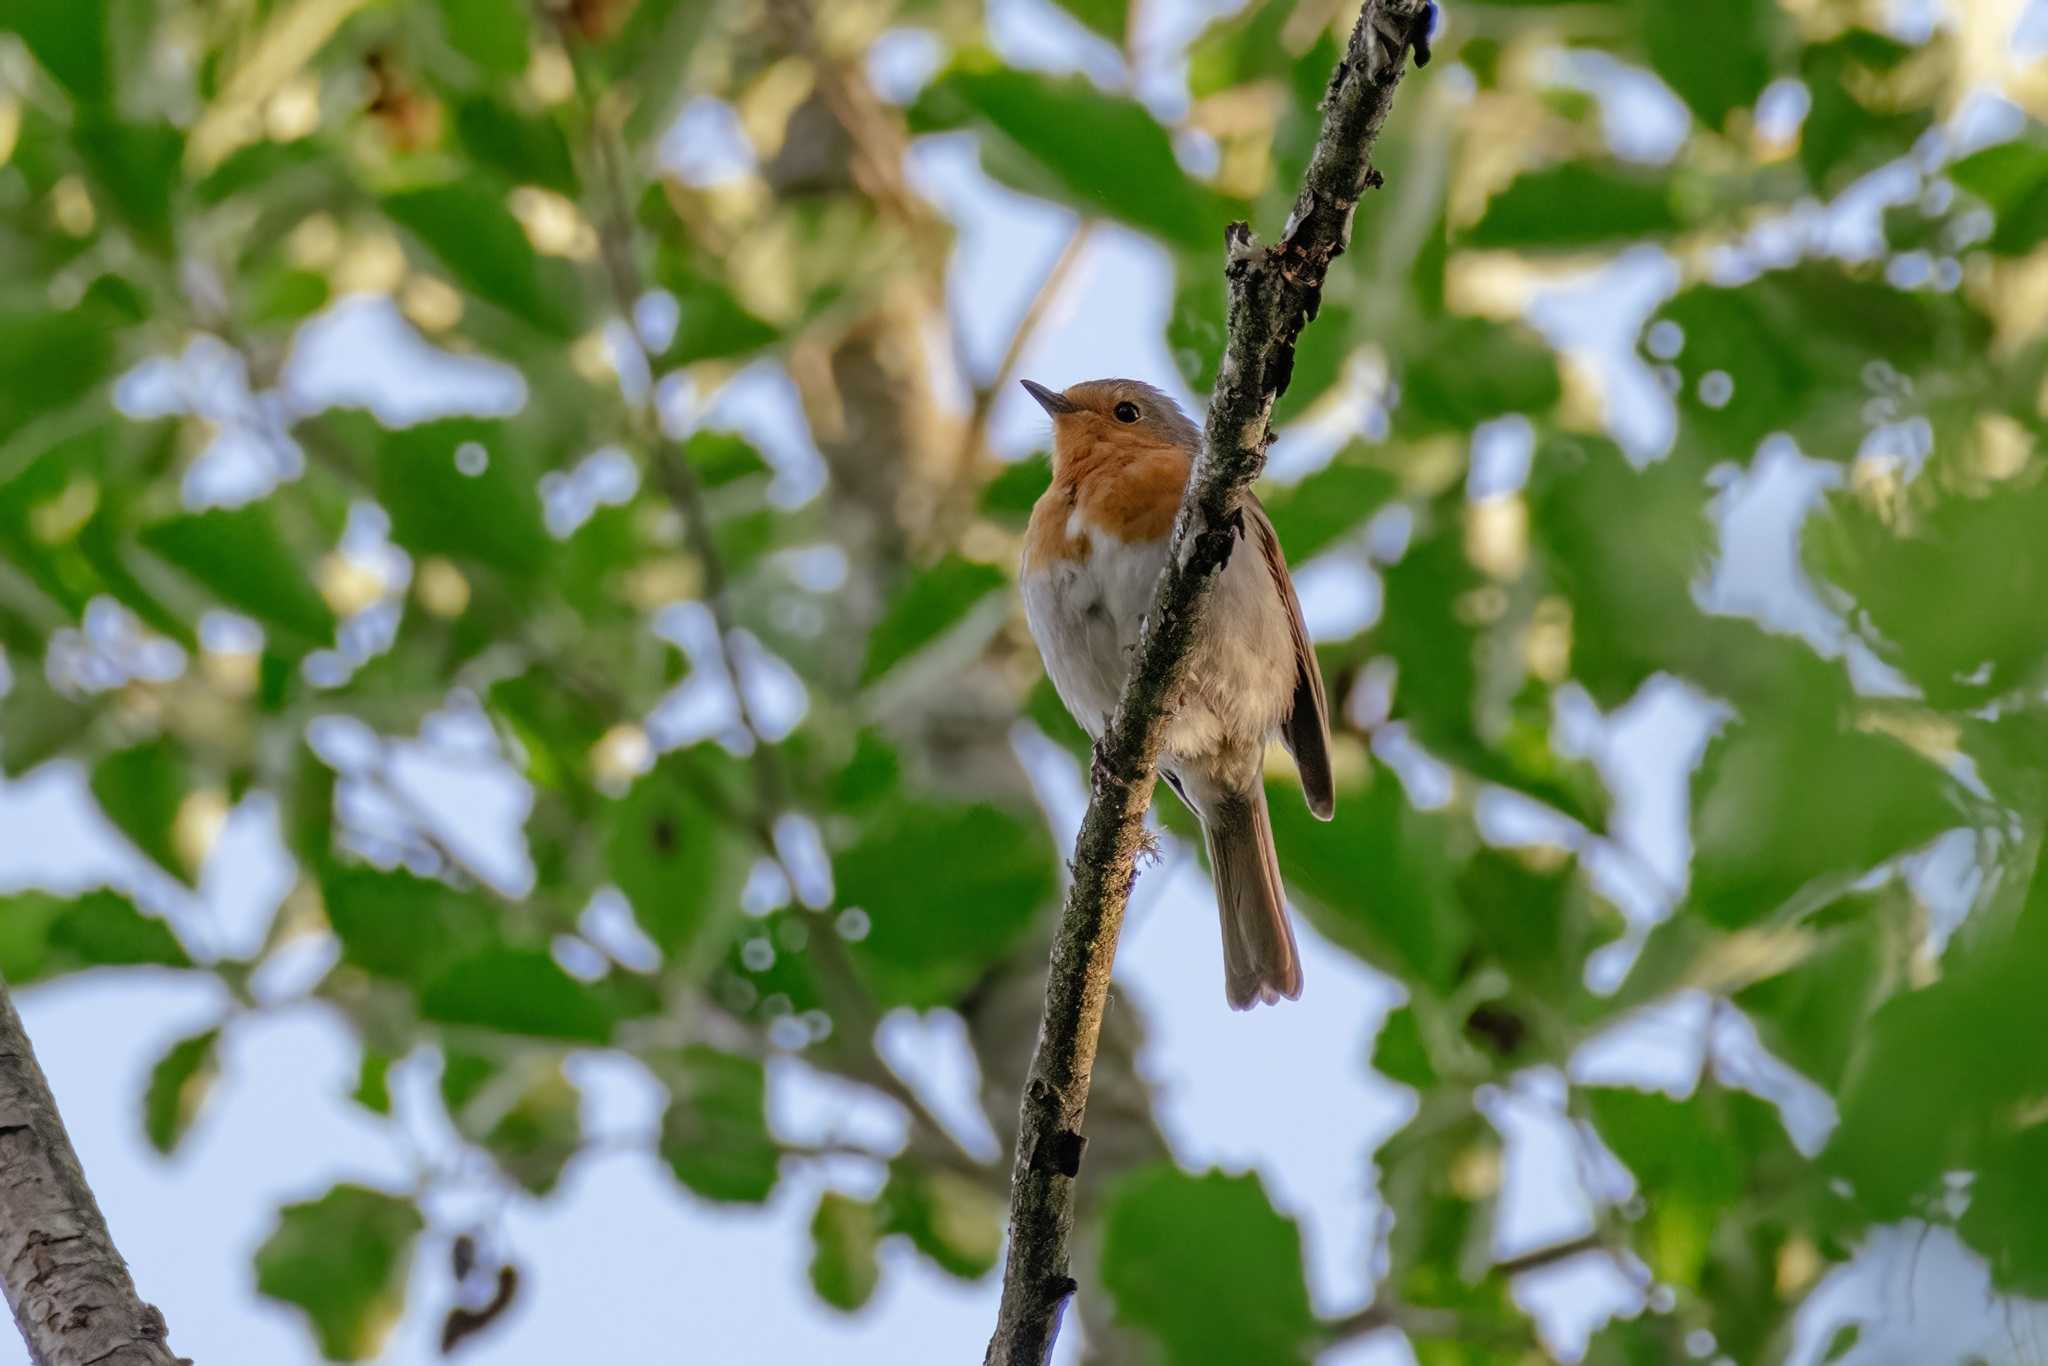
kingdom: Animalia
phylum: Chordata
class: Aves
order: Passeriformes
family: Muscicapidae
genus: Erithacus
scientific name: Erithacus rubecula
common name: European robin
